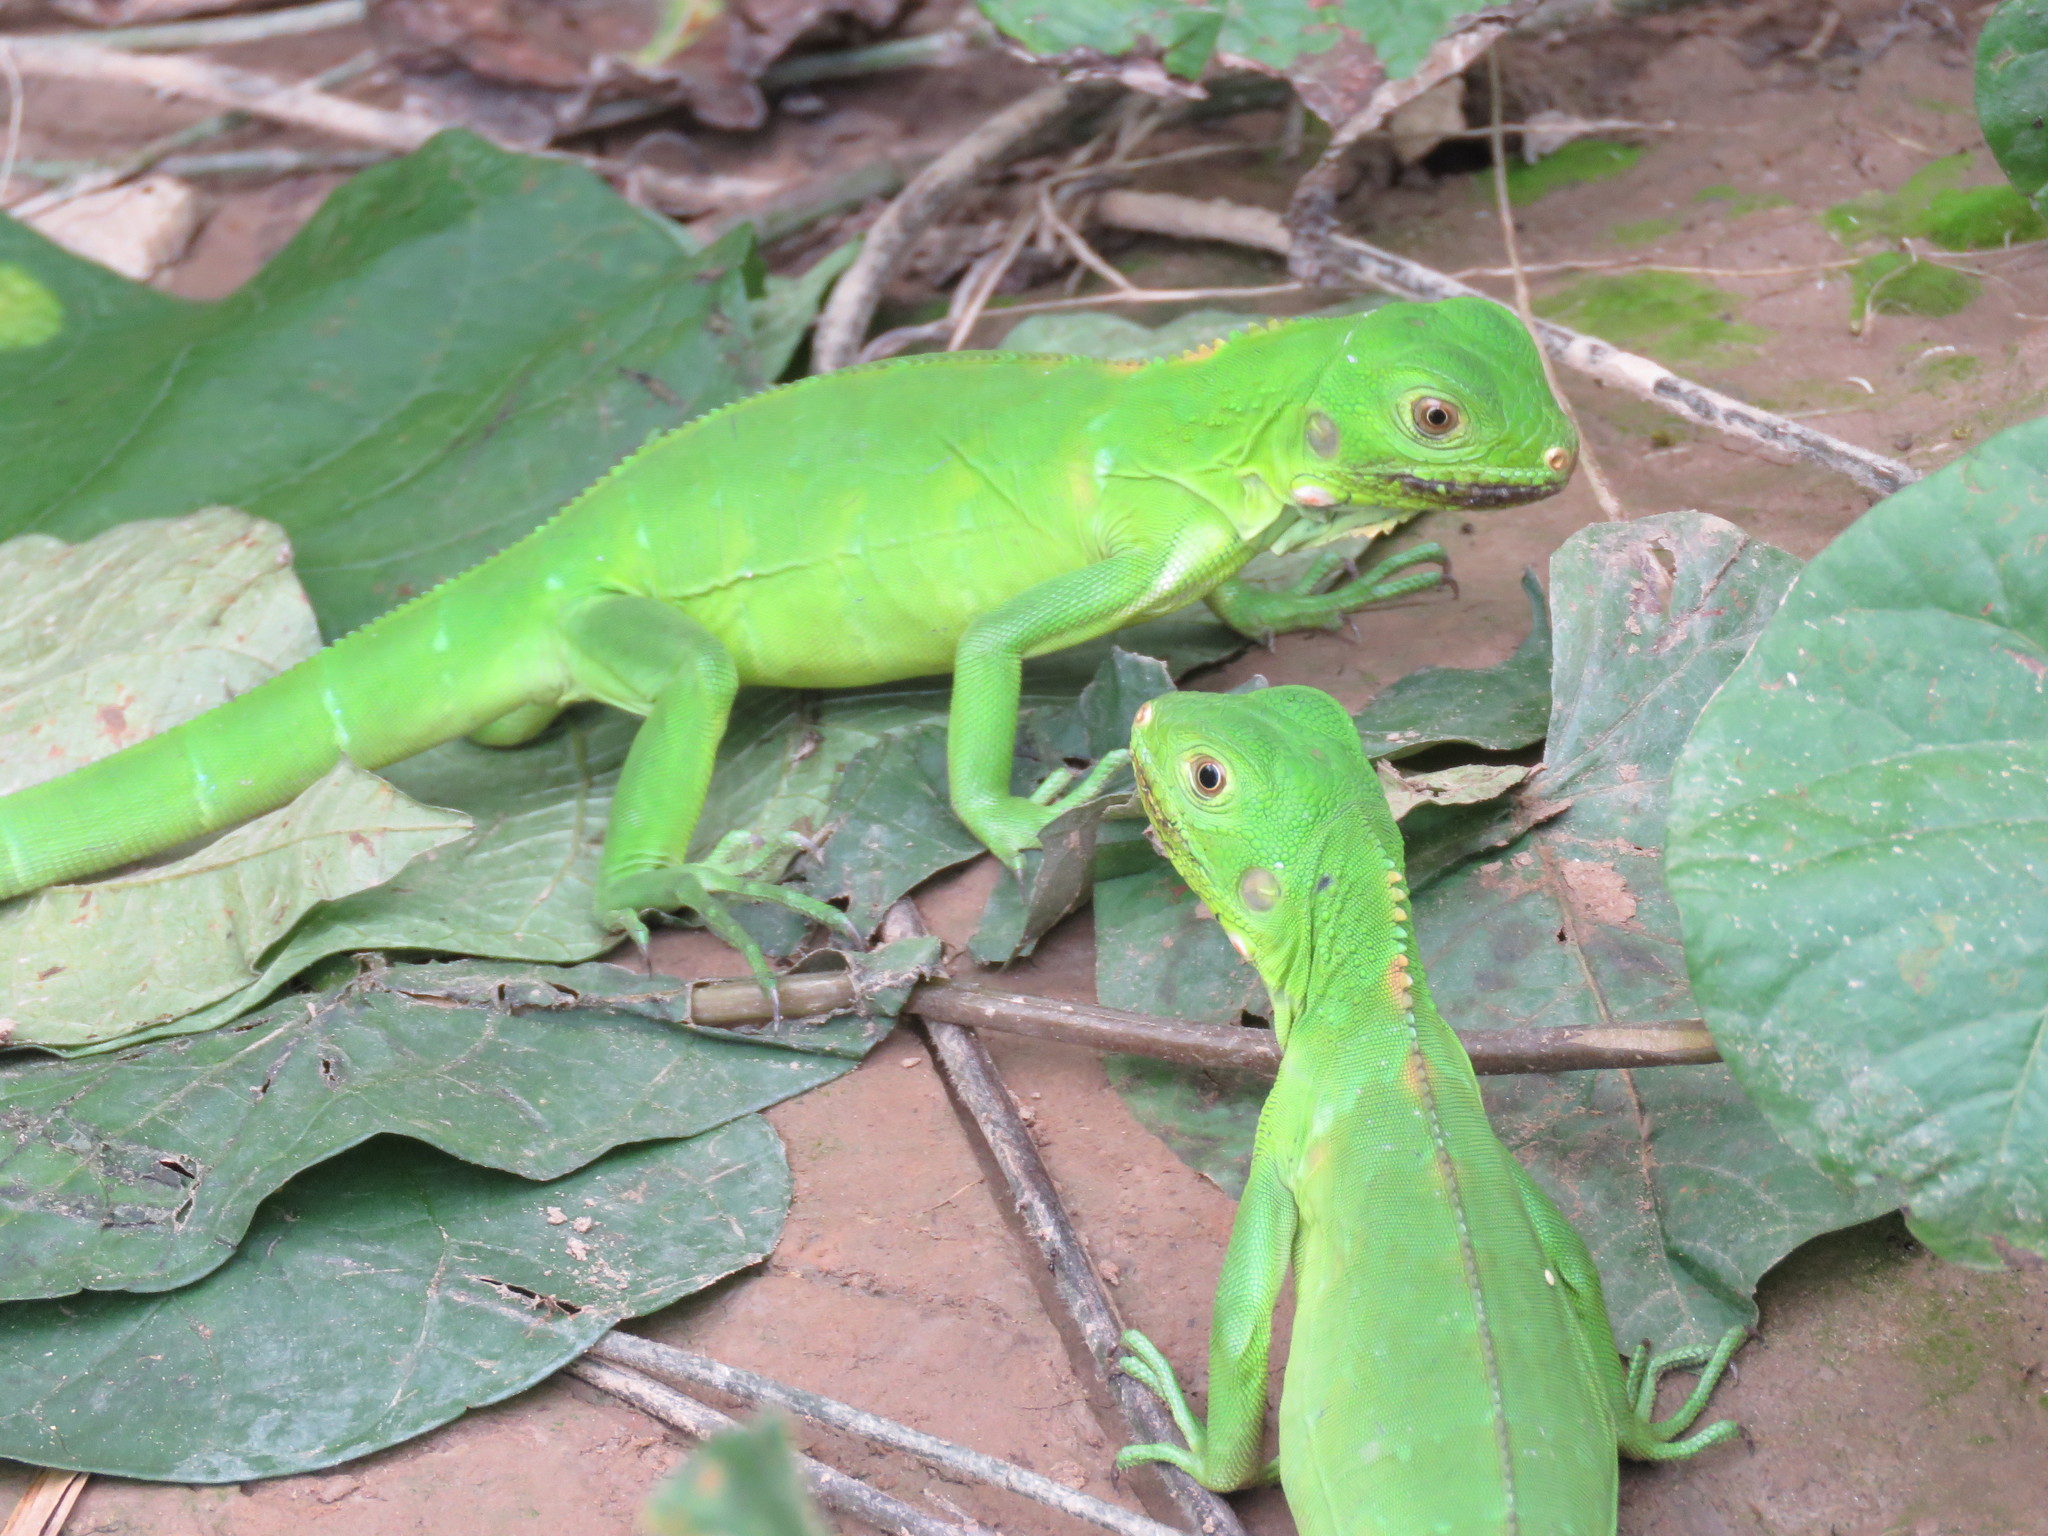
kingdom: Animalia
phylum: Chordata
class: Squamata
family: Iguanidae
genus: Iguana
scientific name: Iguana iguana
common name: Green iguana
